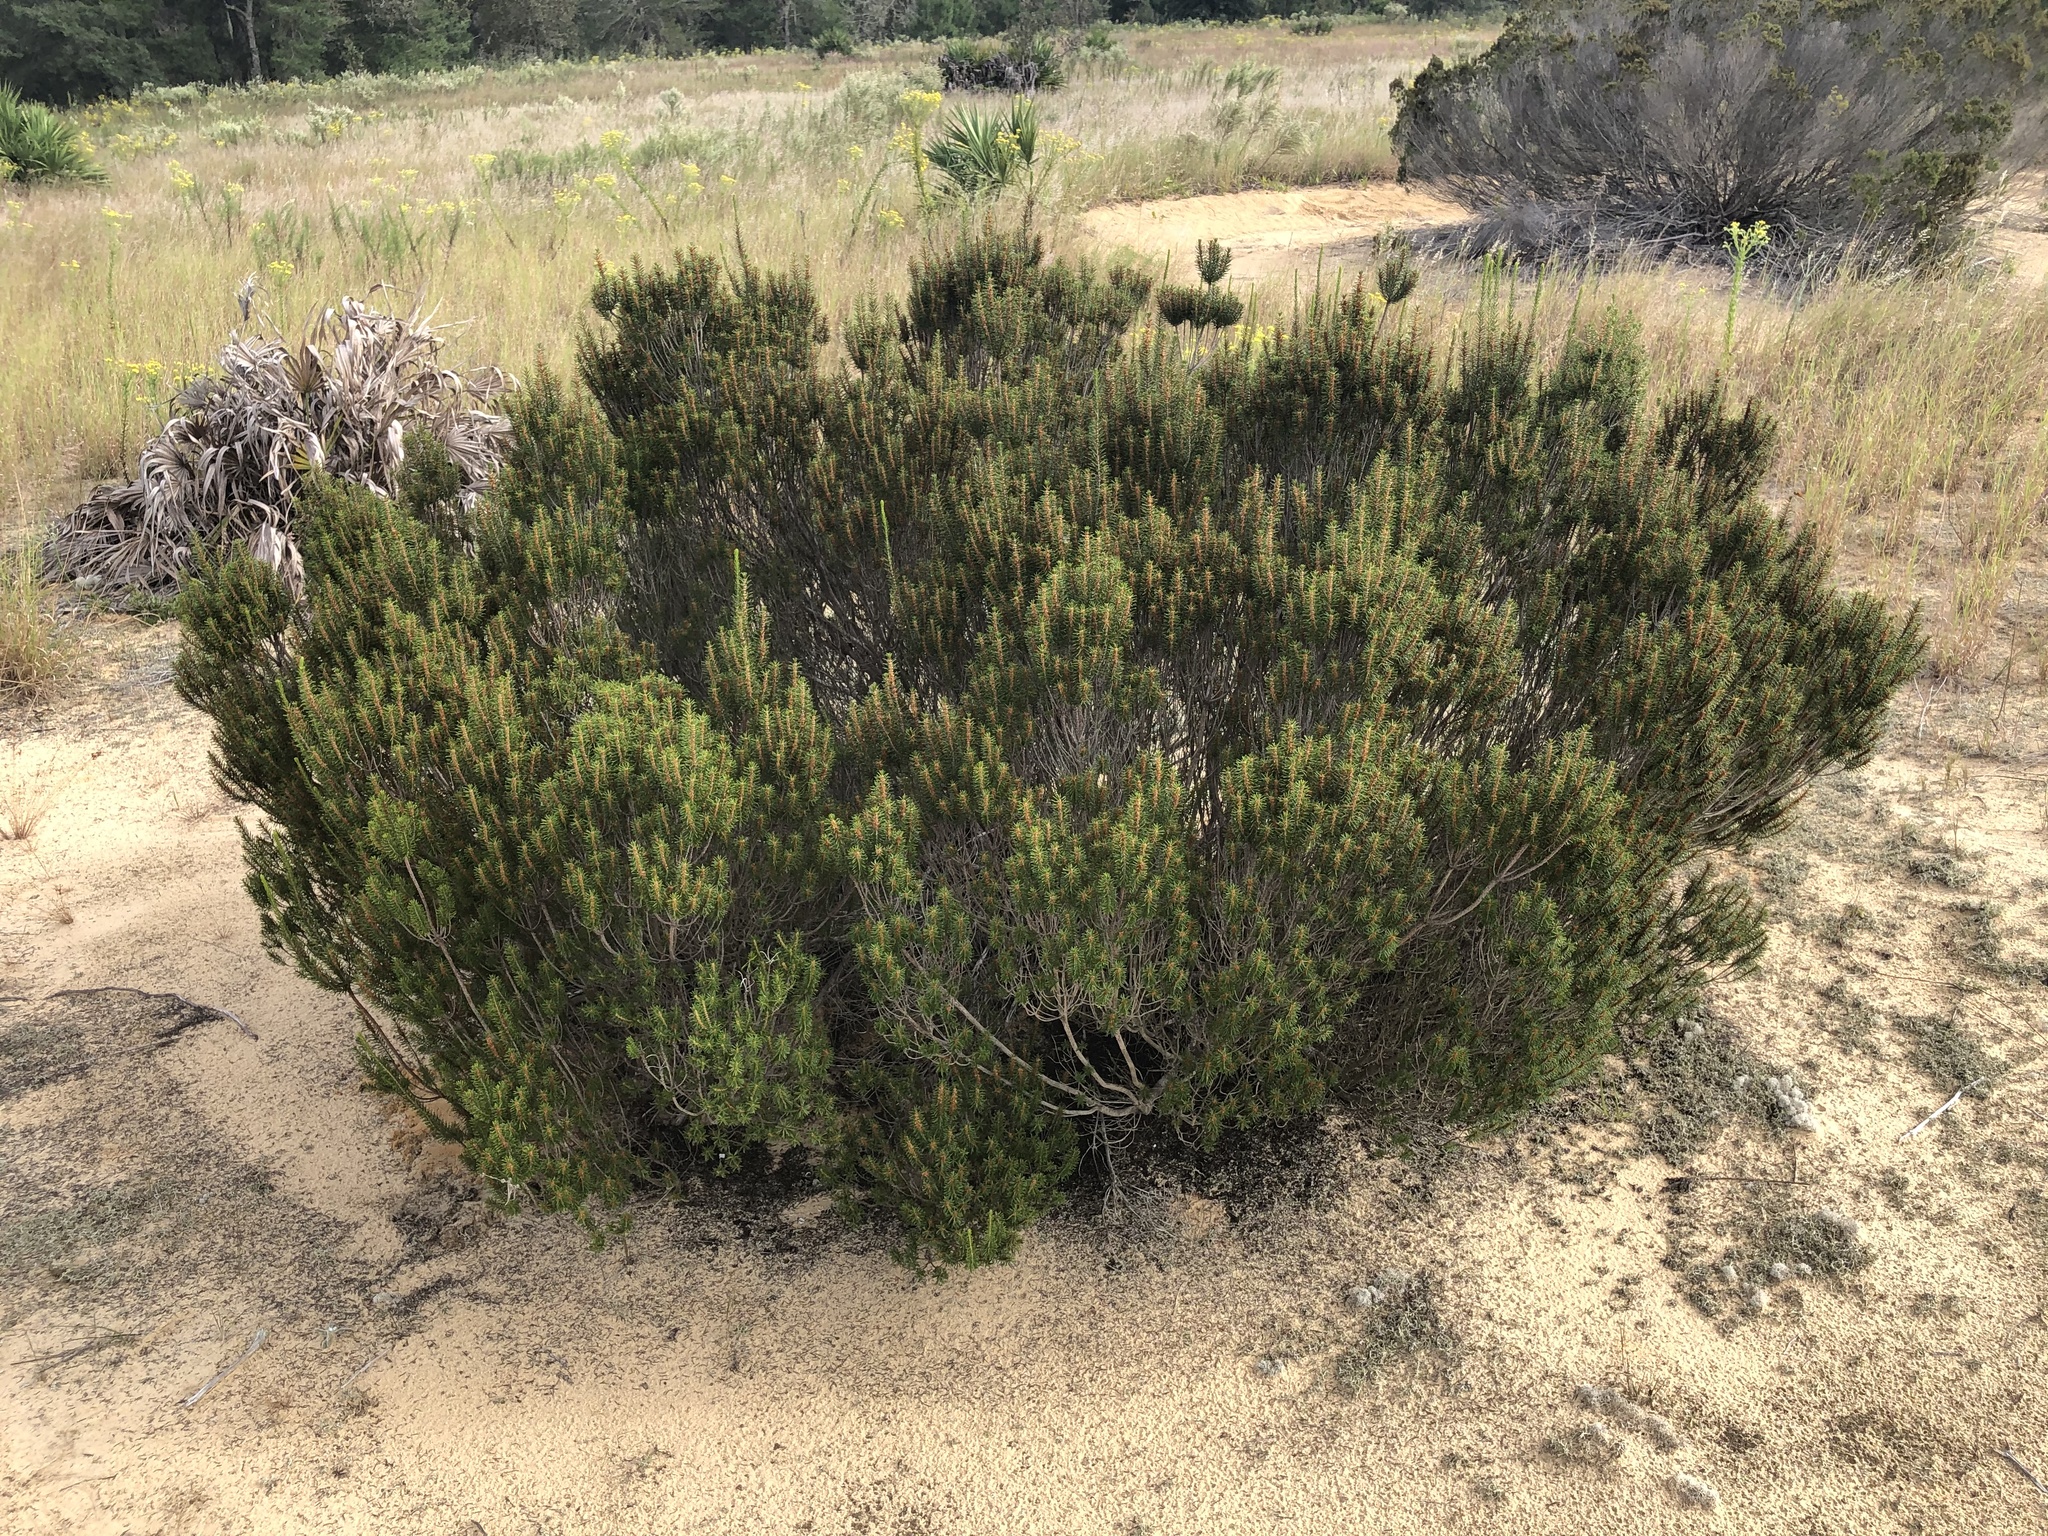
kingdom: Plantae
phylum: Tracheophyta
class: Magnoliopsida
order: Ericales
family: Ericaceae
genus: Ceratiola
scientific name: Ceratiola ericoides
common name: Sandhill-rosemary
